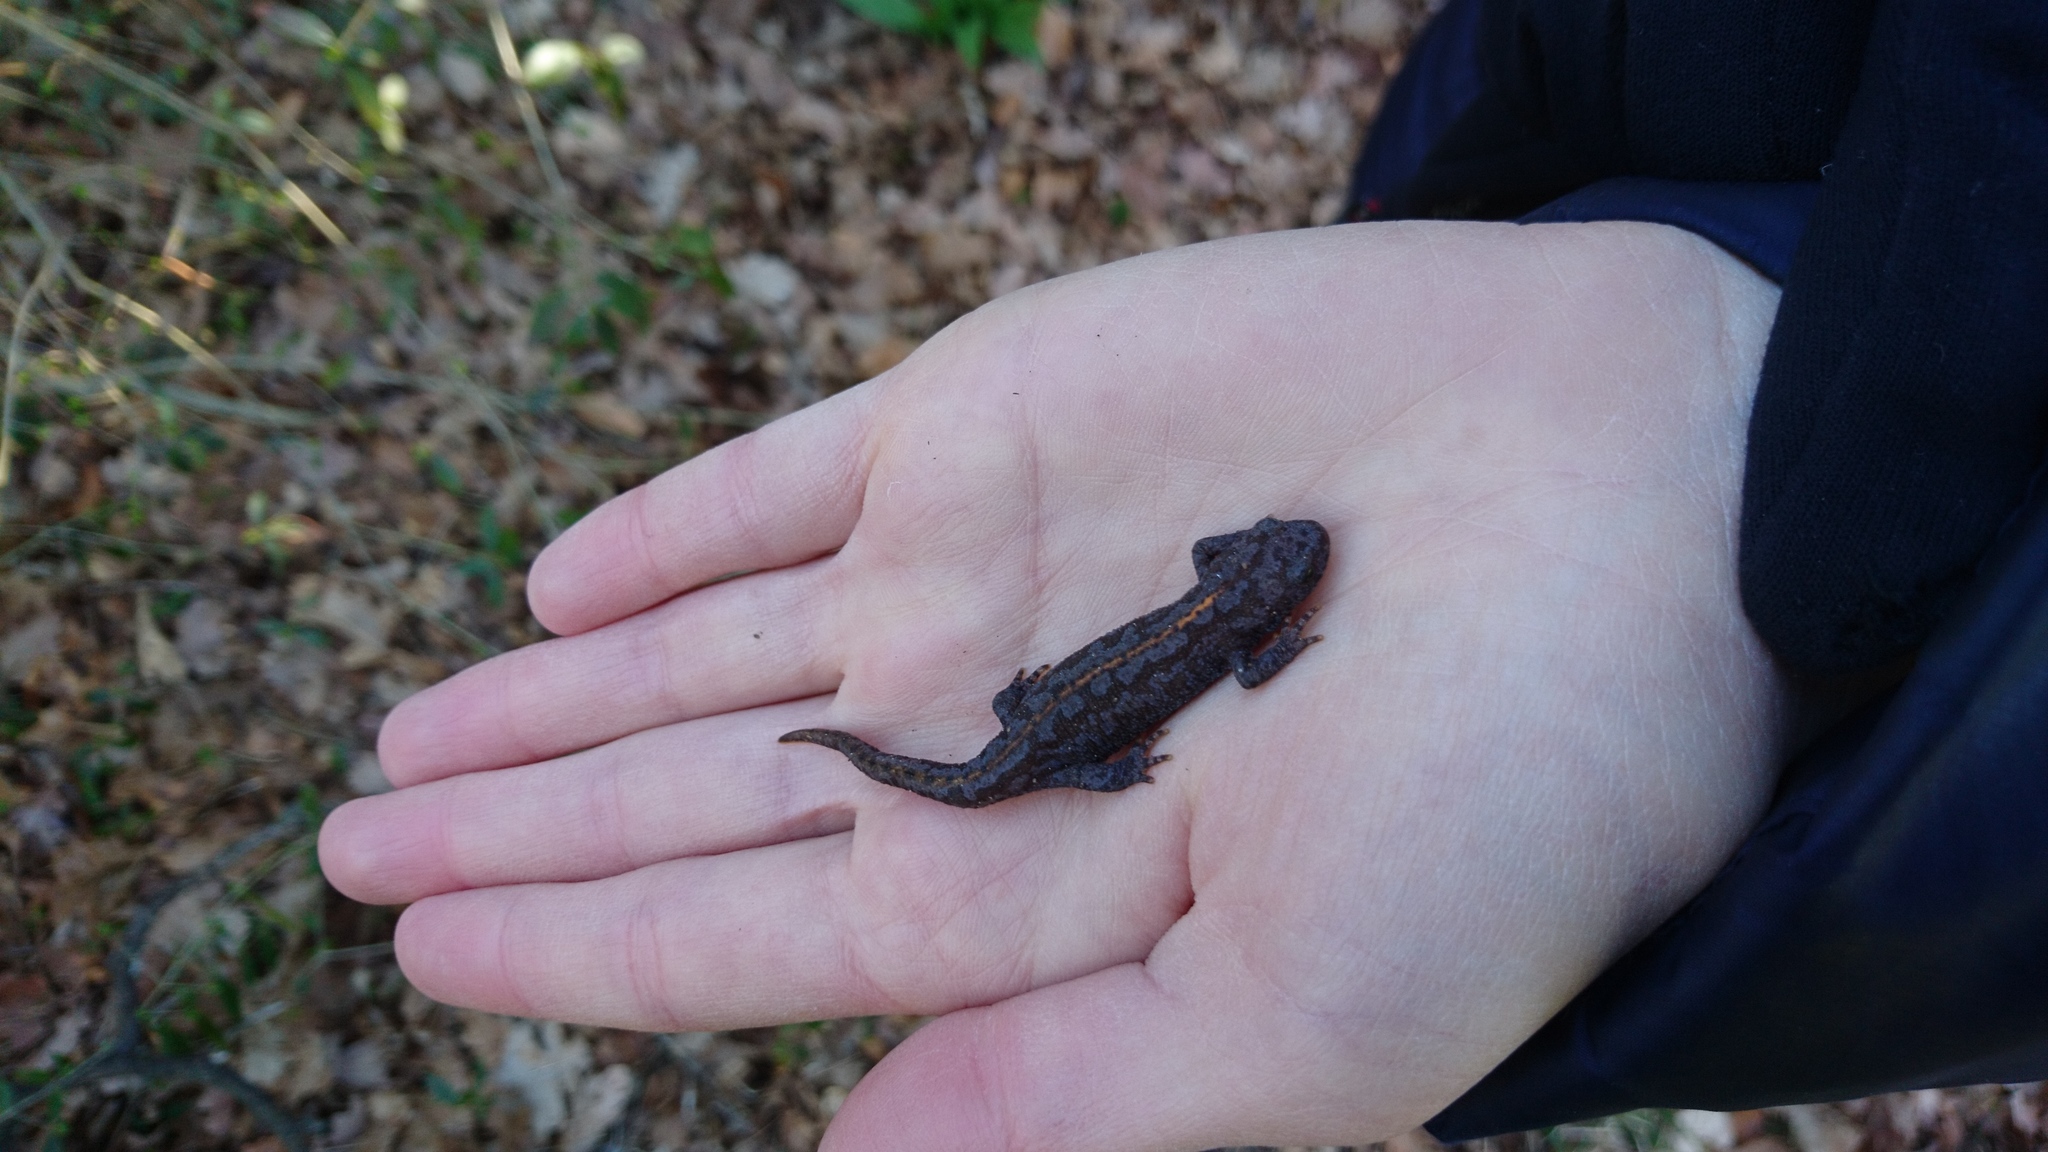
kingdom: Animalia
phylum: Chordata
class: Amphibia
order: Caudata
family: Salamandridae
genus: Ichthyosaura
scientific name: Ichthyosaura alpestris
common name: Alpine newt
